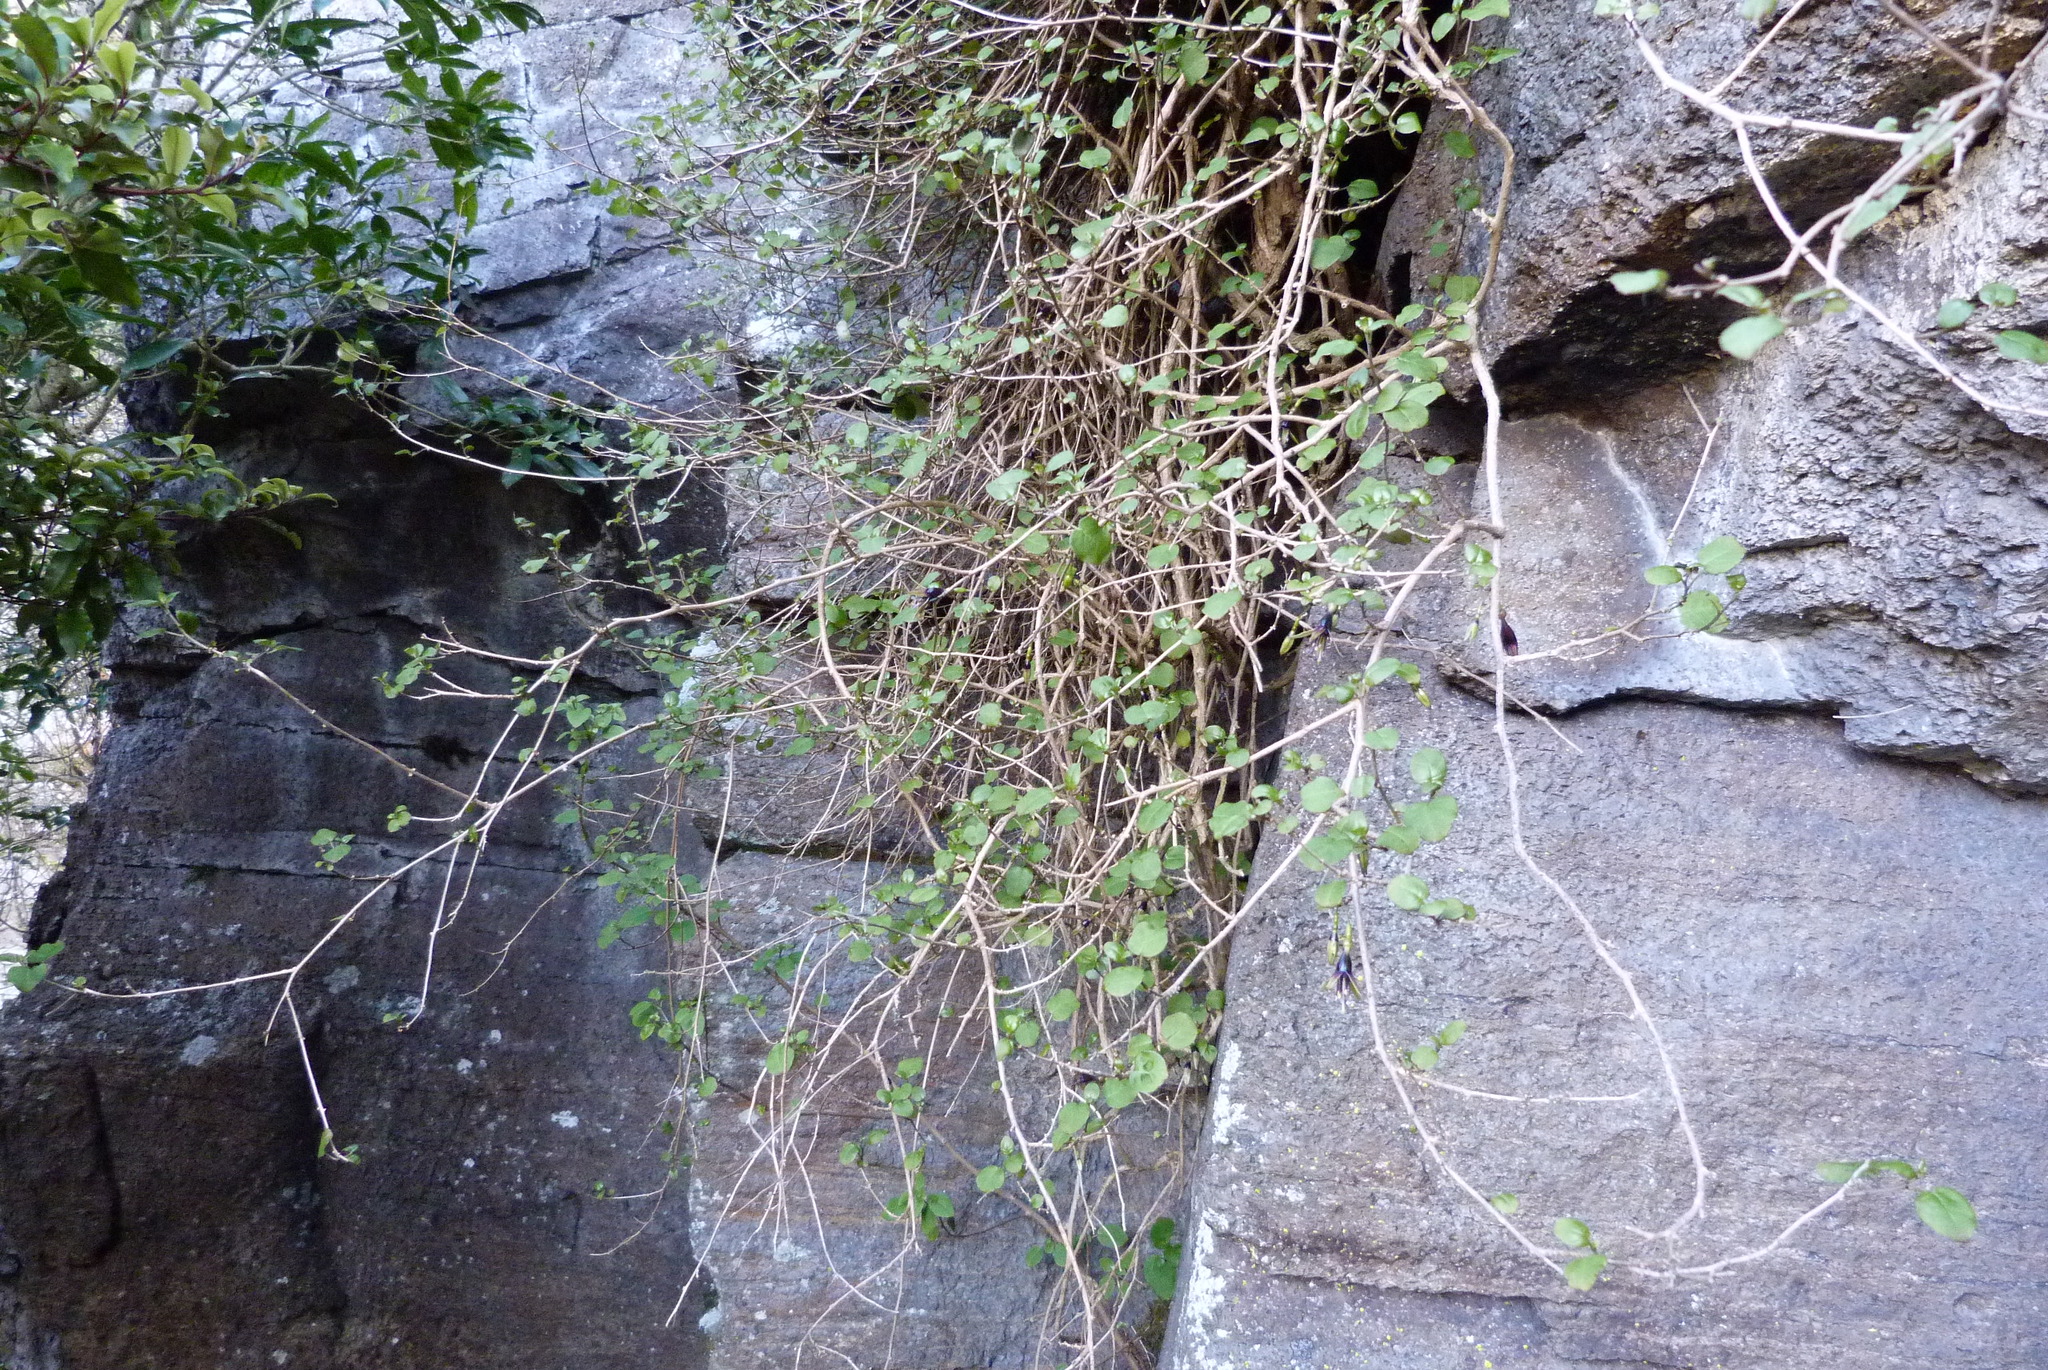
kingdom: Plantae
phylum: Tracheophyta
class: Magnoliopsida
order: Myrtales
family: Onagraceae
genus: Fuchsia
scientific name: Fuchsia perscandens
